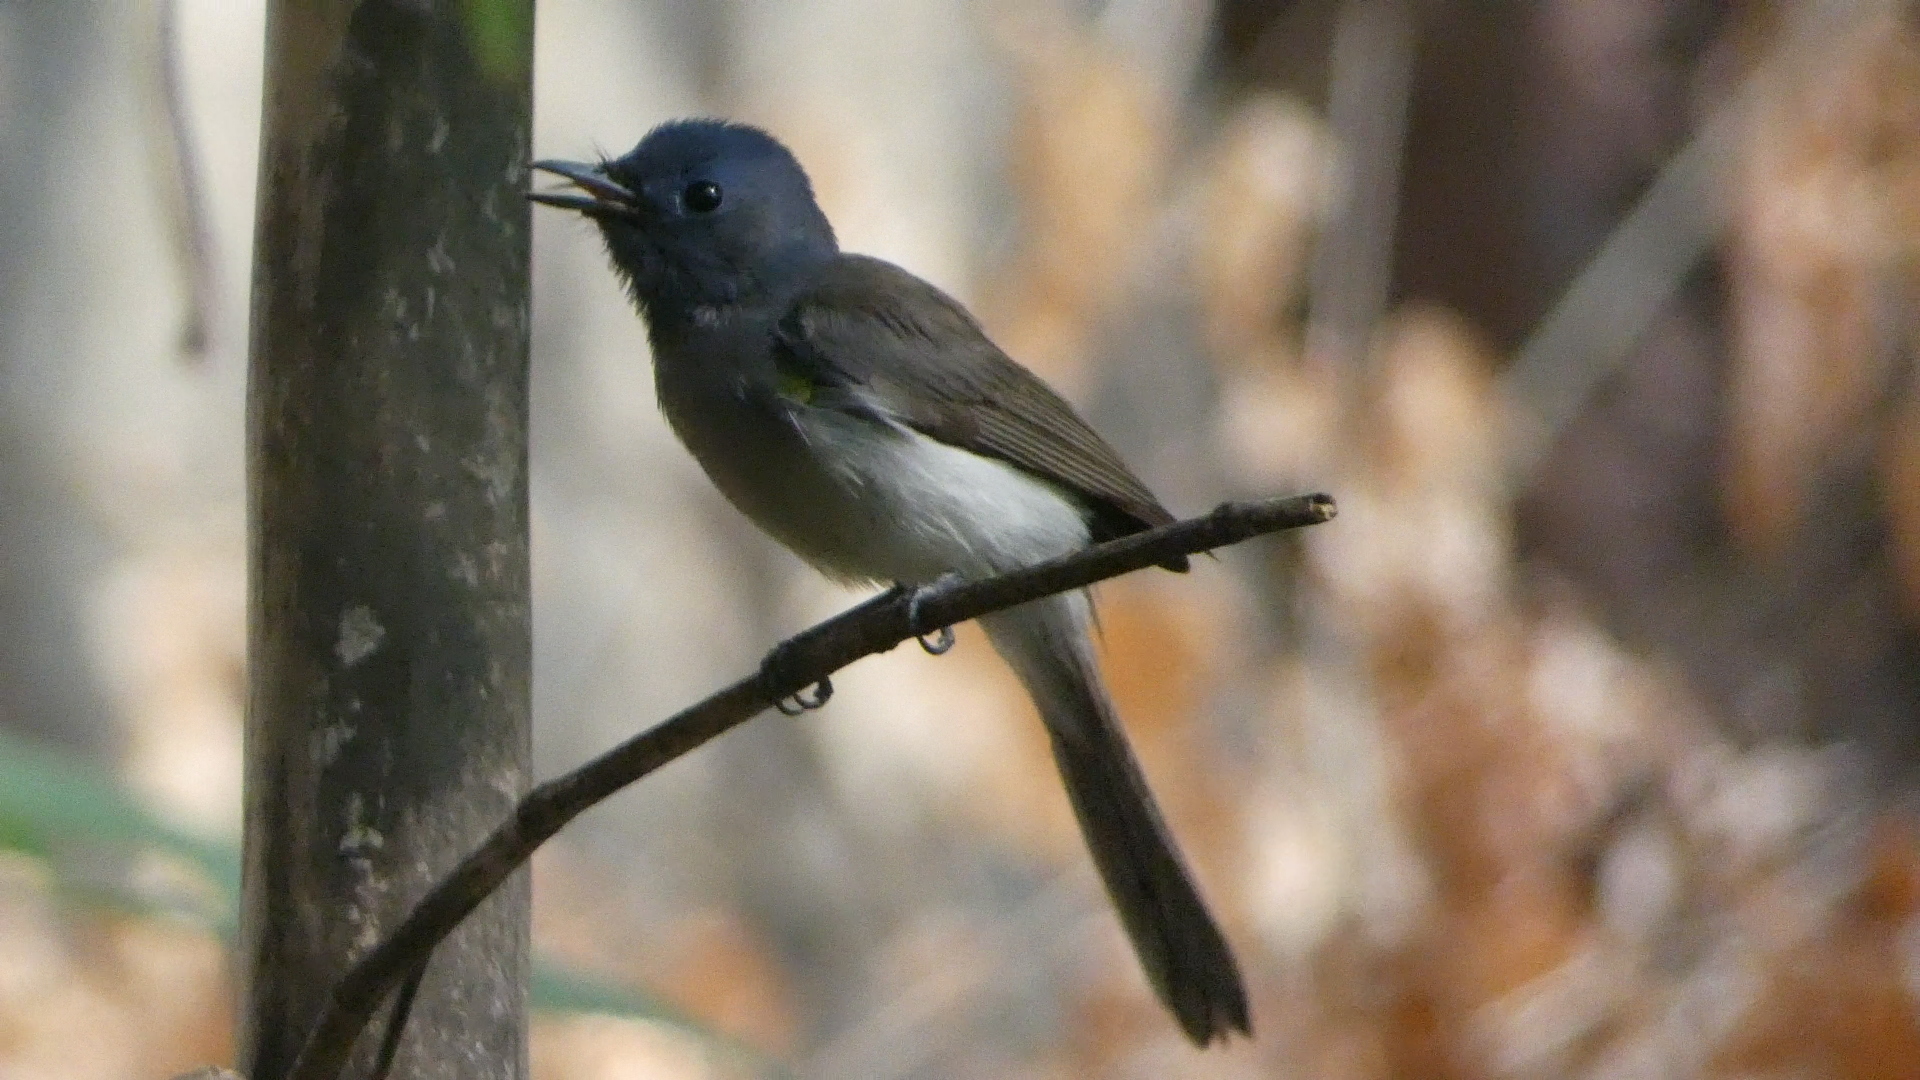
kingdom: Animalia
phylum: Chordata
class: Aves
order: Passeriformes
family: Monarchidae
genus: Hypothymis
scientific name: Hypothymis azurea
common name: Black-naped monarch
